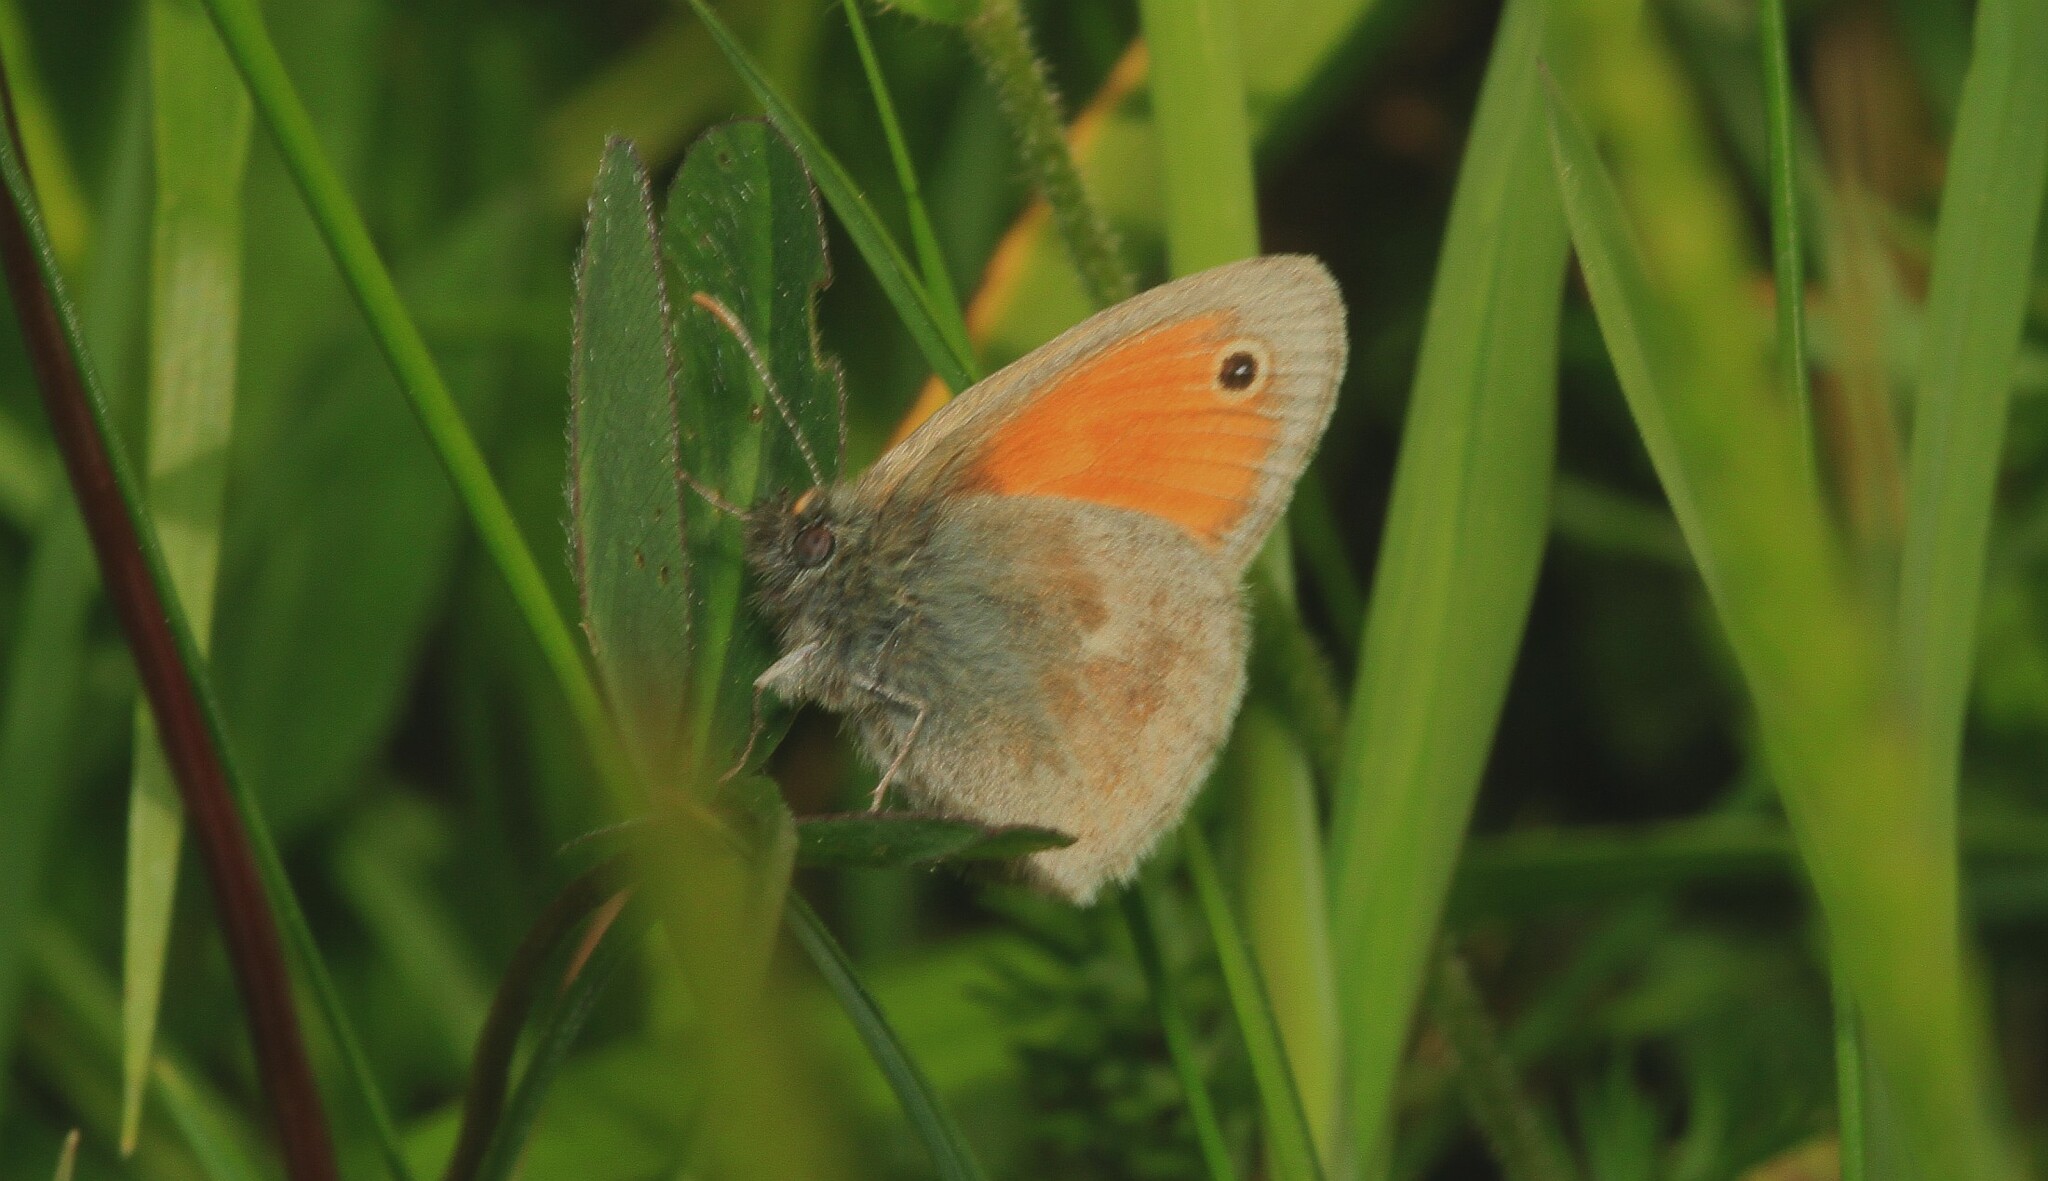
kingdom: Animalia
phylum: Arthropoda
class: Insecta
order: Lepidoptera
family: Nymphalidae
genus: Coenonympha
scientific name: Coenonympha pamphilus
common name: Small heath
